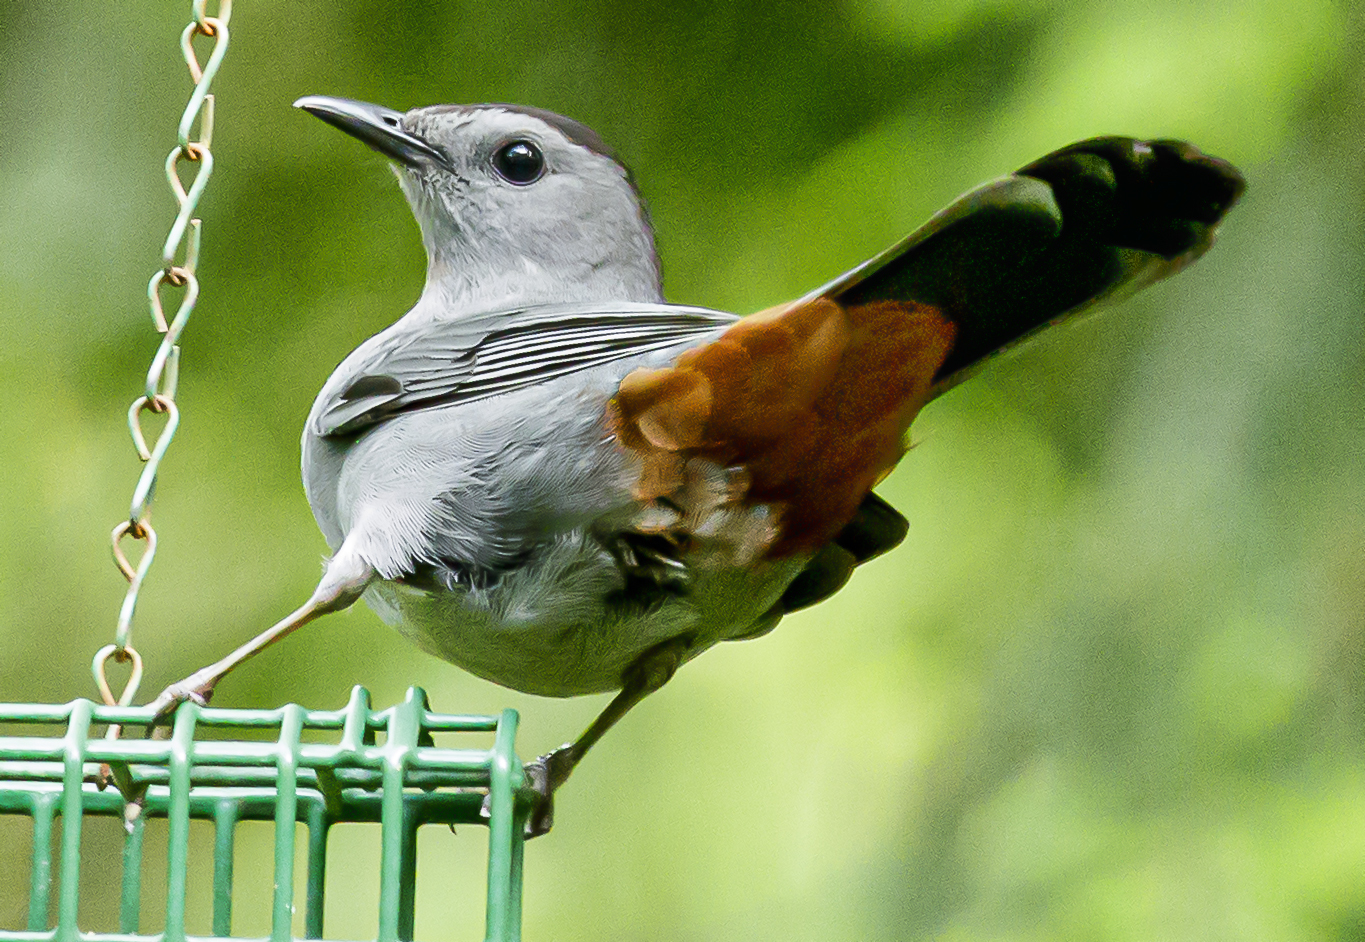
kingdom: Animalia
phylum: Chordata
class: Aves
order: Passeriformes
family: Mimidae
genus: Dumetella
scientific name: Dumetella carolinensis
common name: Gray catbird
